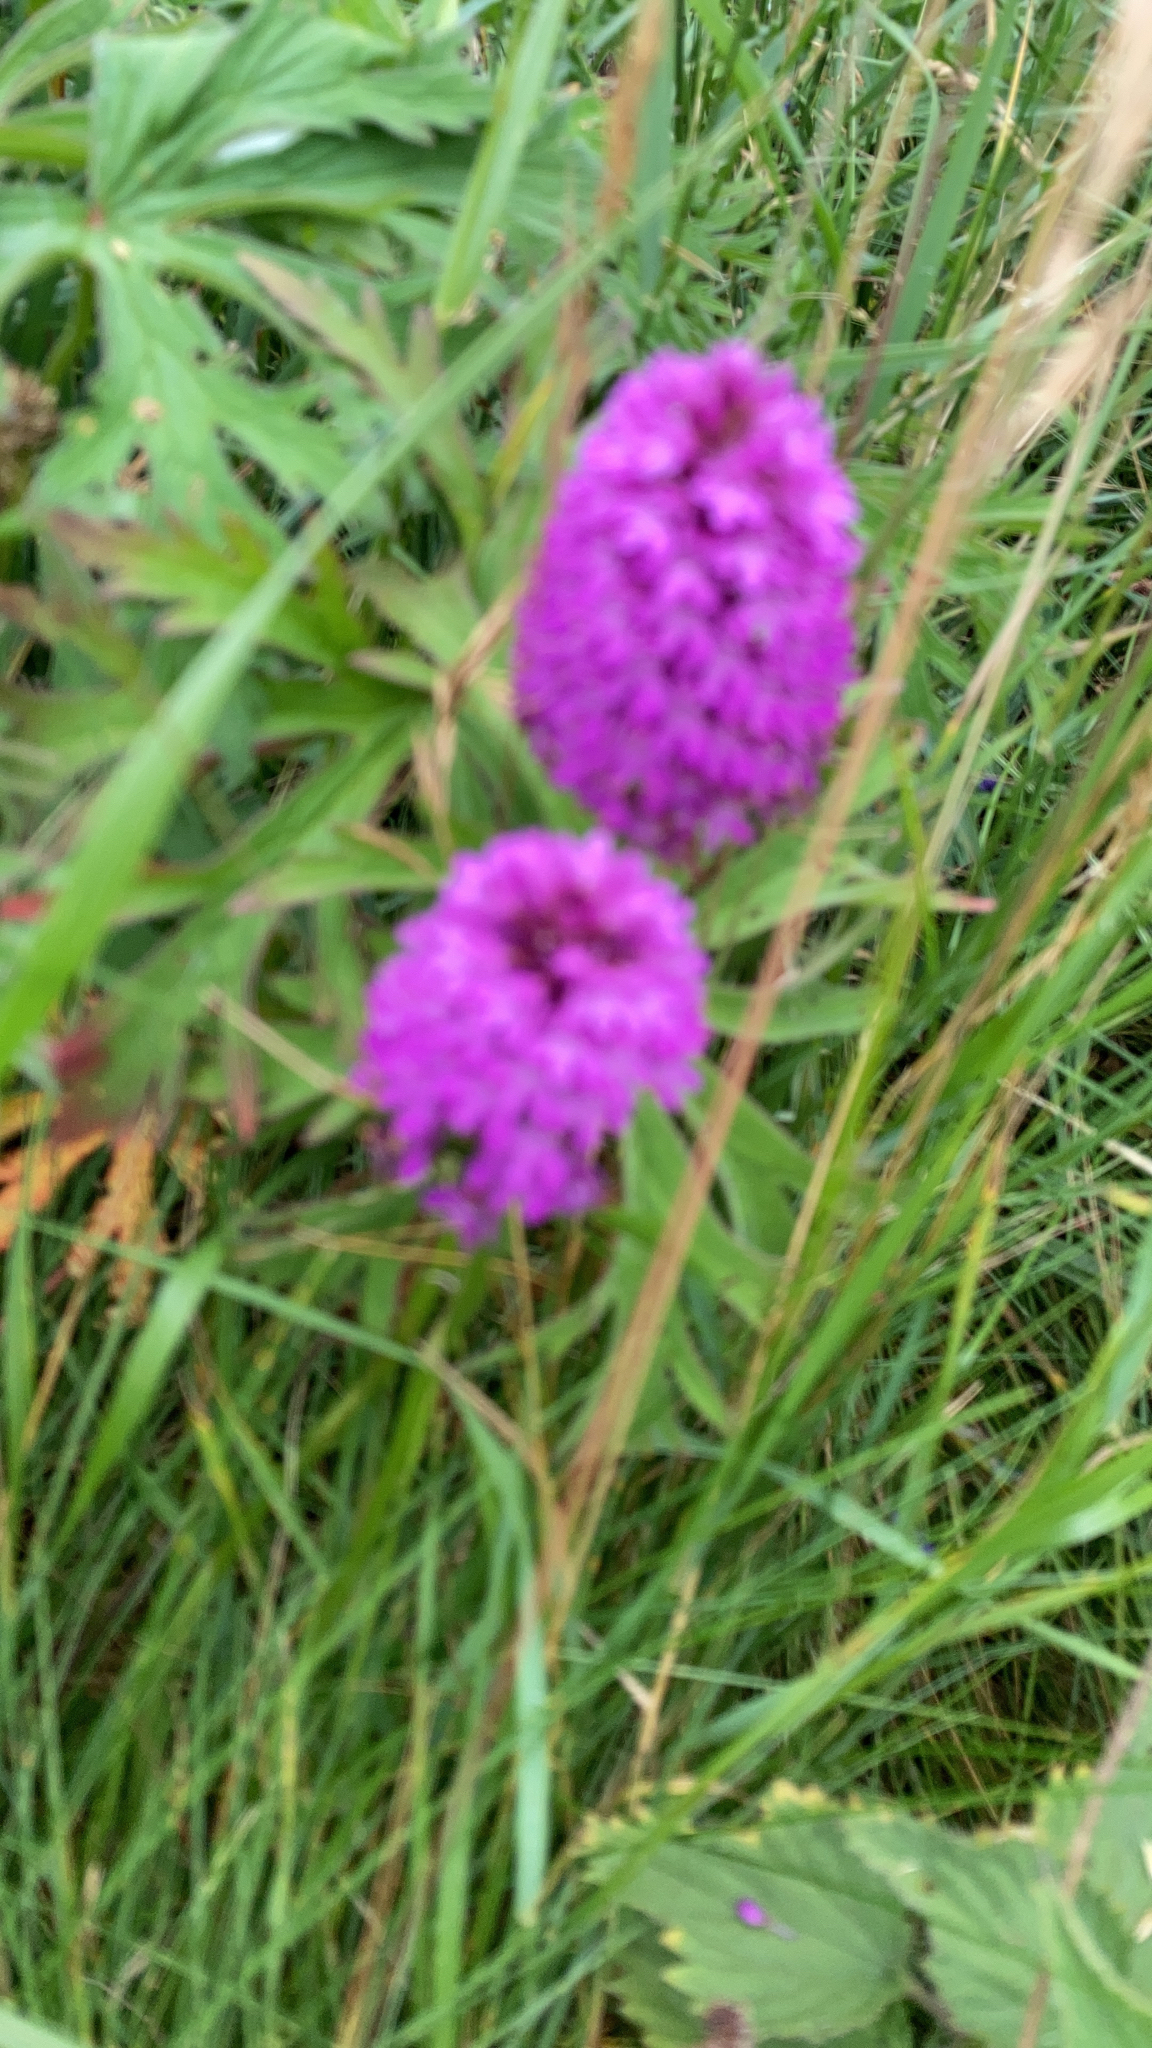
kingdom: Plantae
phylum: Tracheophyta
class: Liliopsida
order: Asparagales
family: Orchidaceae
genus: Anacamptis
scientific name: Anacamptis pyramidalis
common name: Pyramidal orchid
